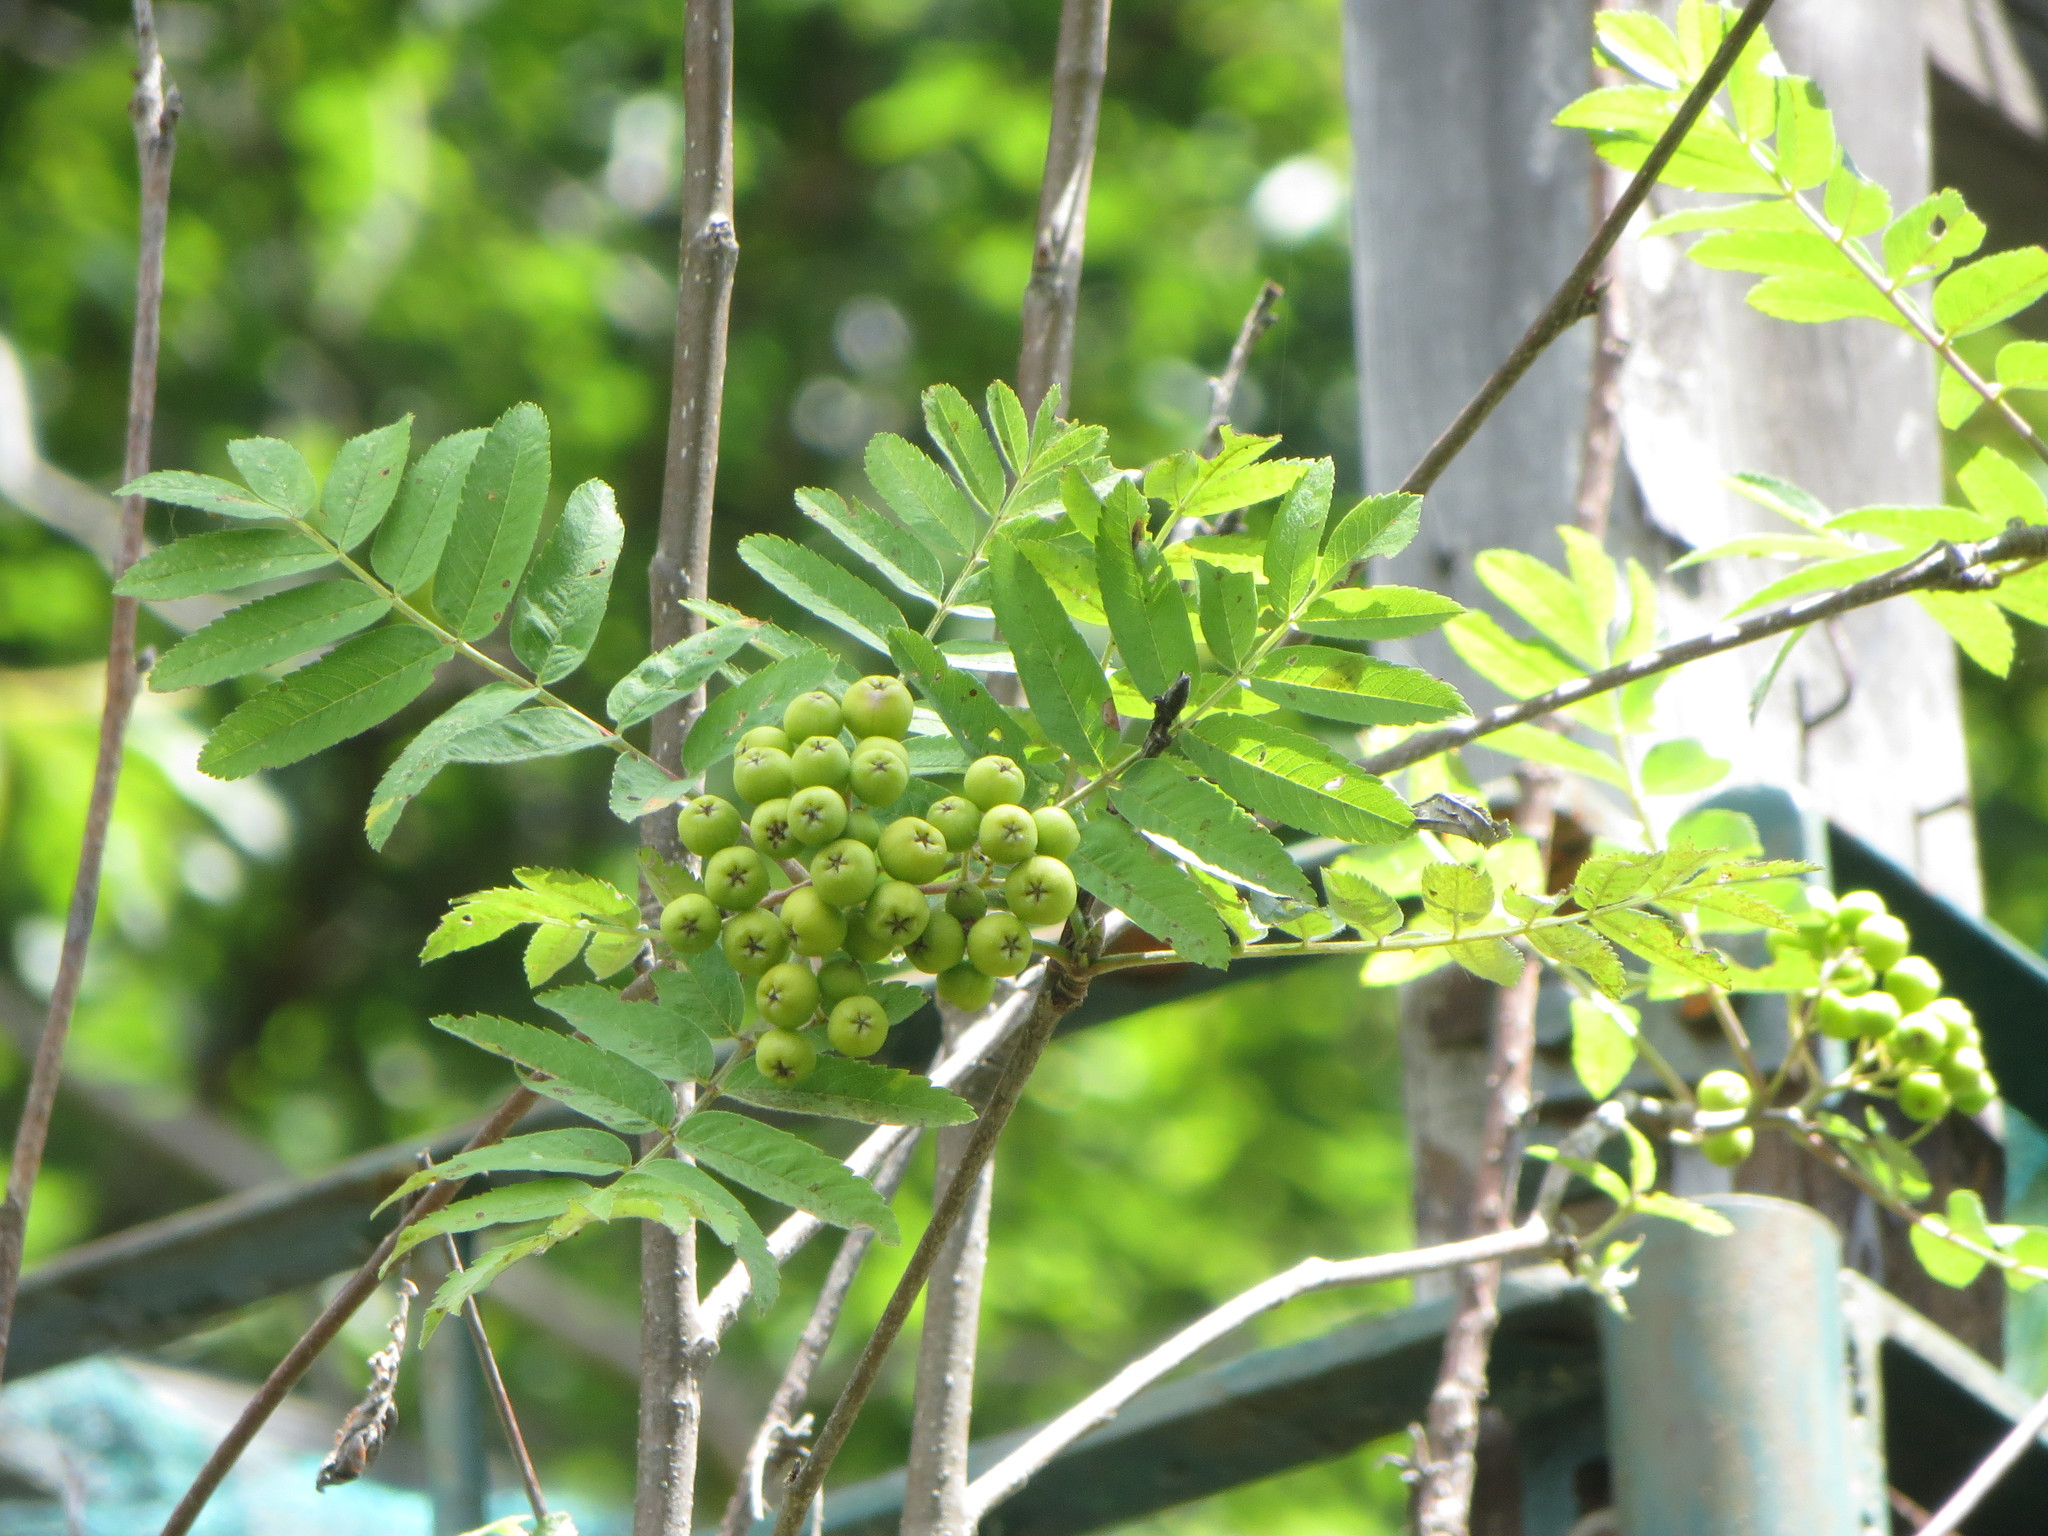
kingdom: Plantae
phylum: Tracheophyta
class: Magnoliopsida
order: Rosales
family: Rosaceae
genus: Sorbus
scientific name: Sorbus aucuparia
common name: Rowan
